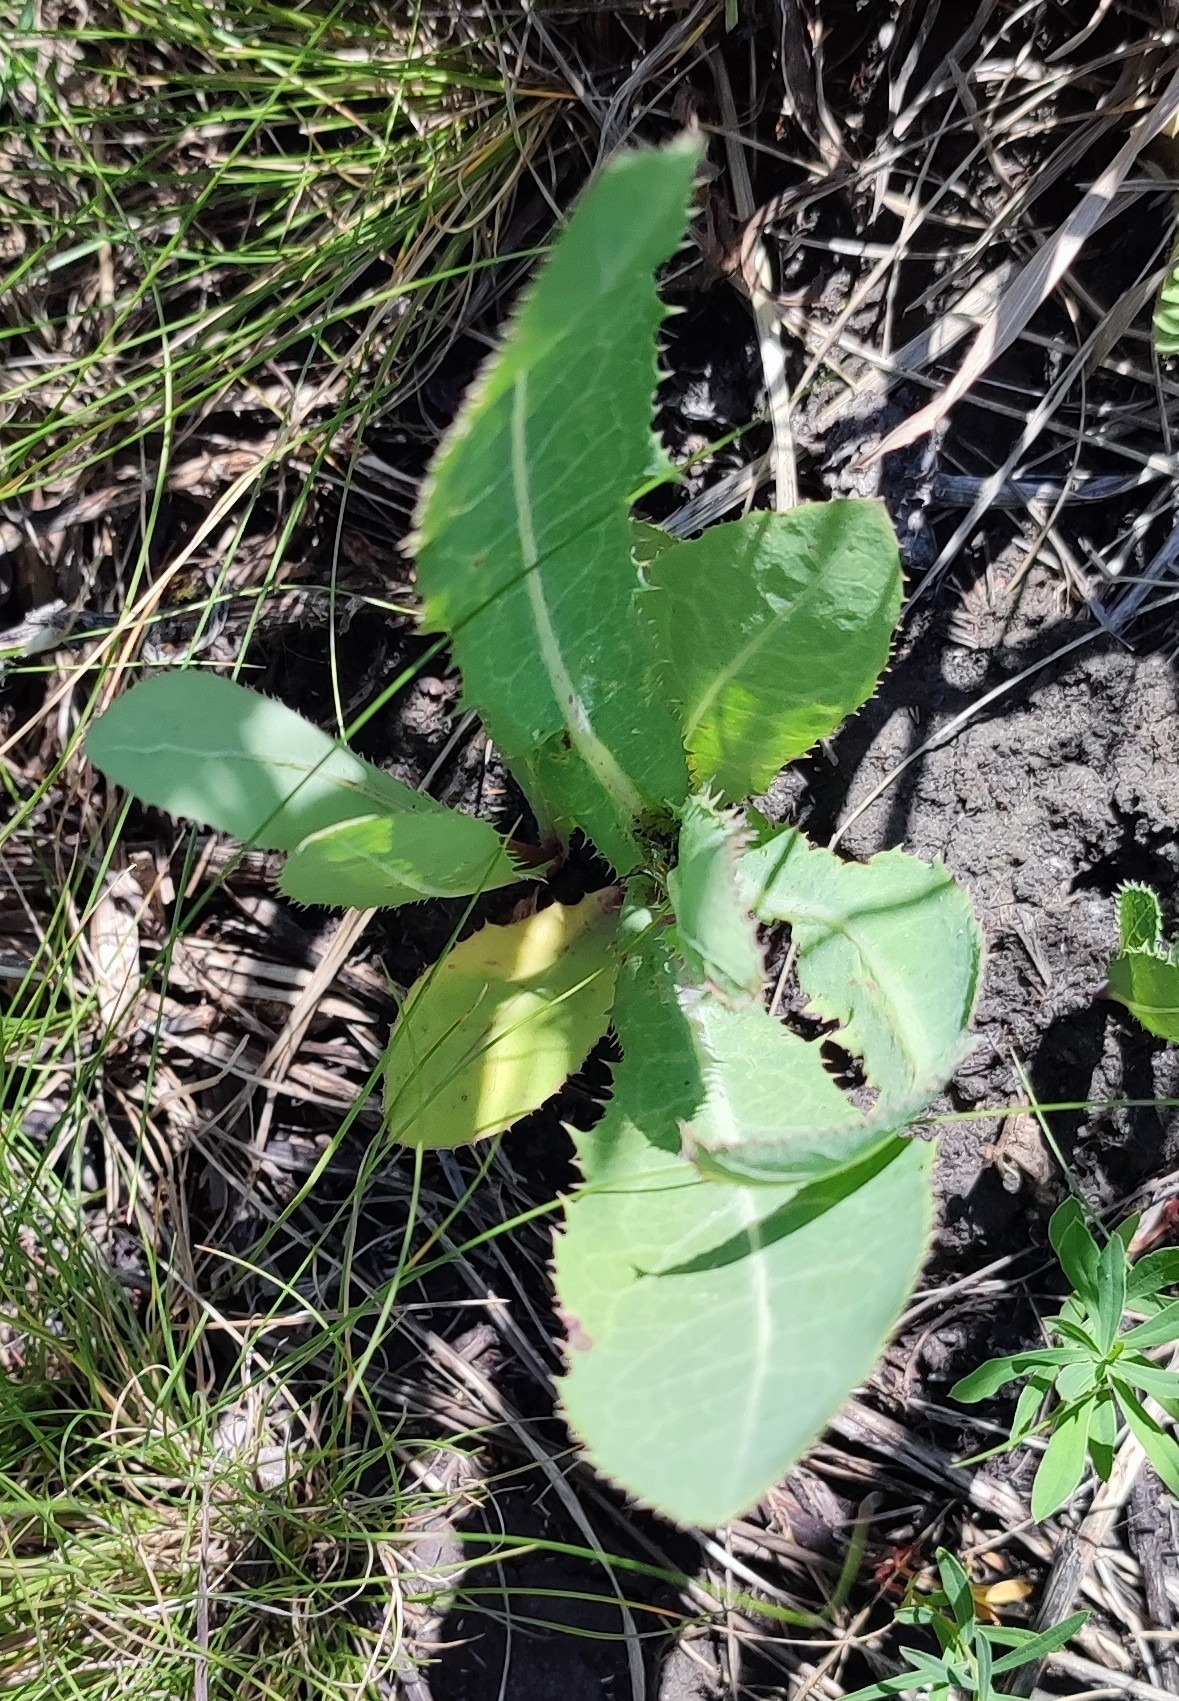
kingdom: Plantae
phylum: Tracheophyta
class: Magnoliopsida
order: Asterales
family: Asteraceae
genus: Sonchus
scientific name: Sonchus arvensis
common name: Perennial sow-thistle
